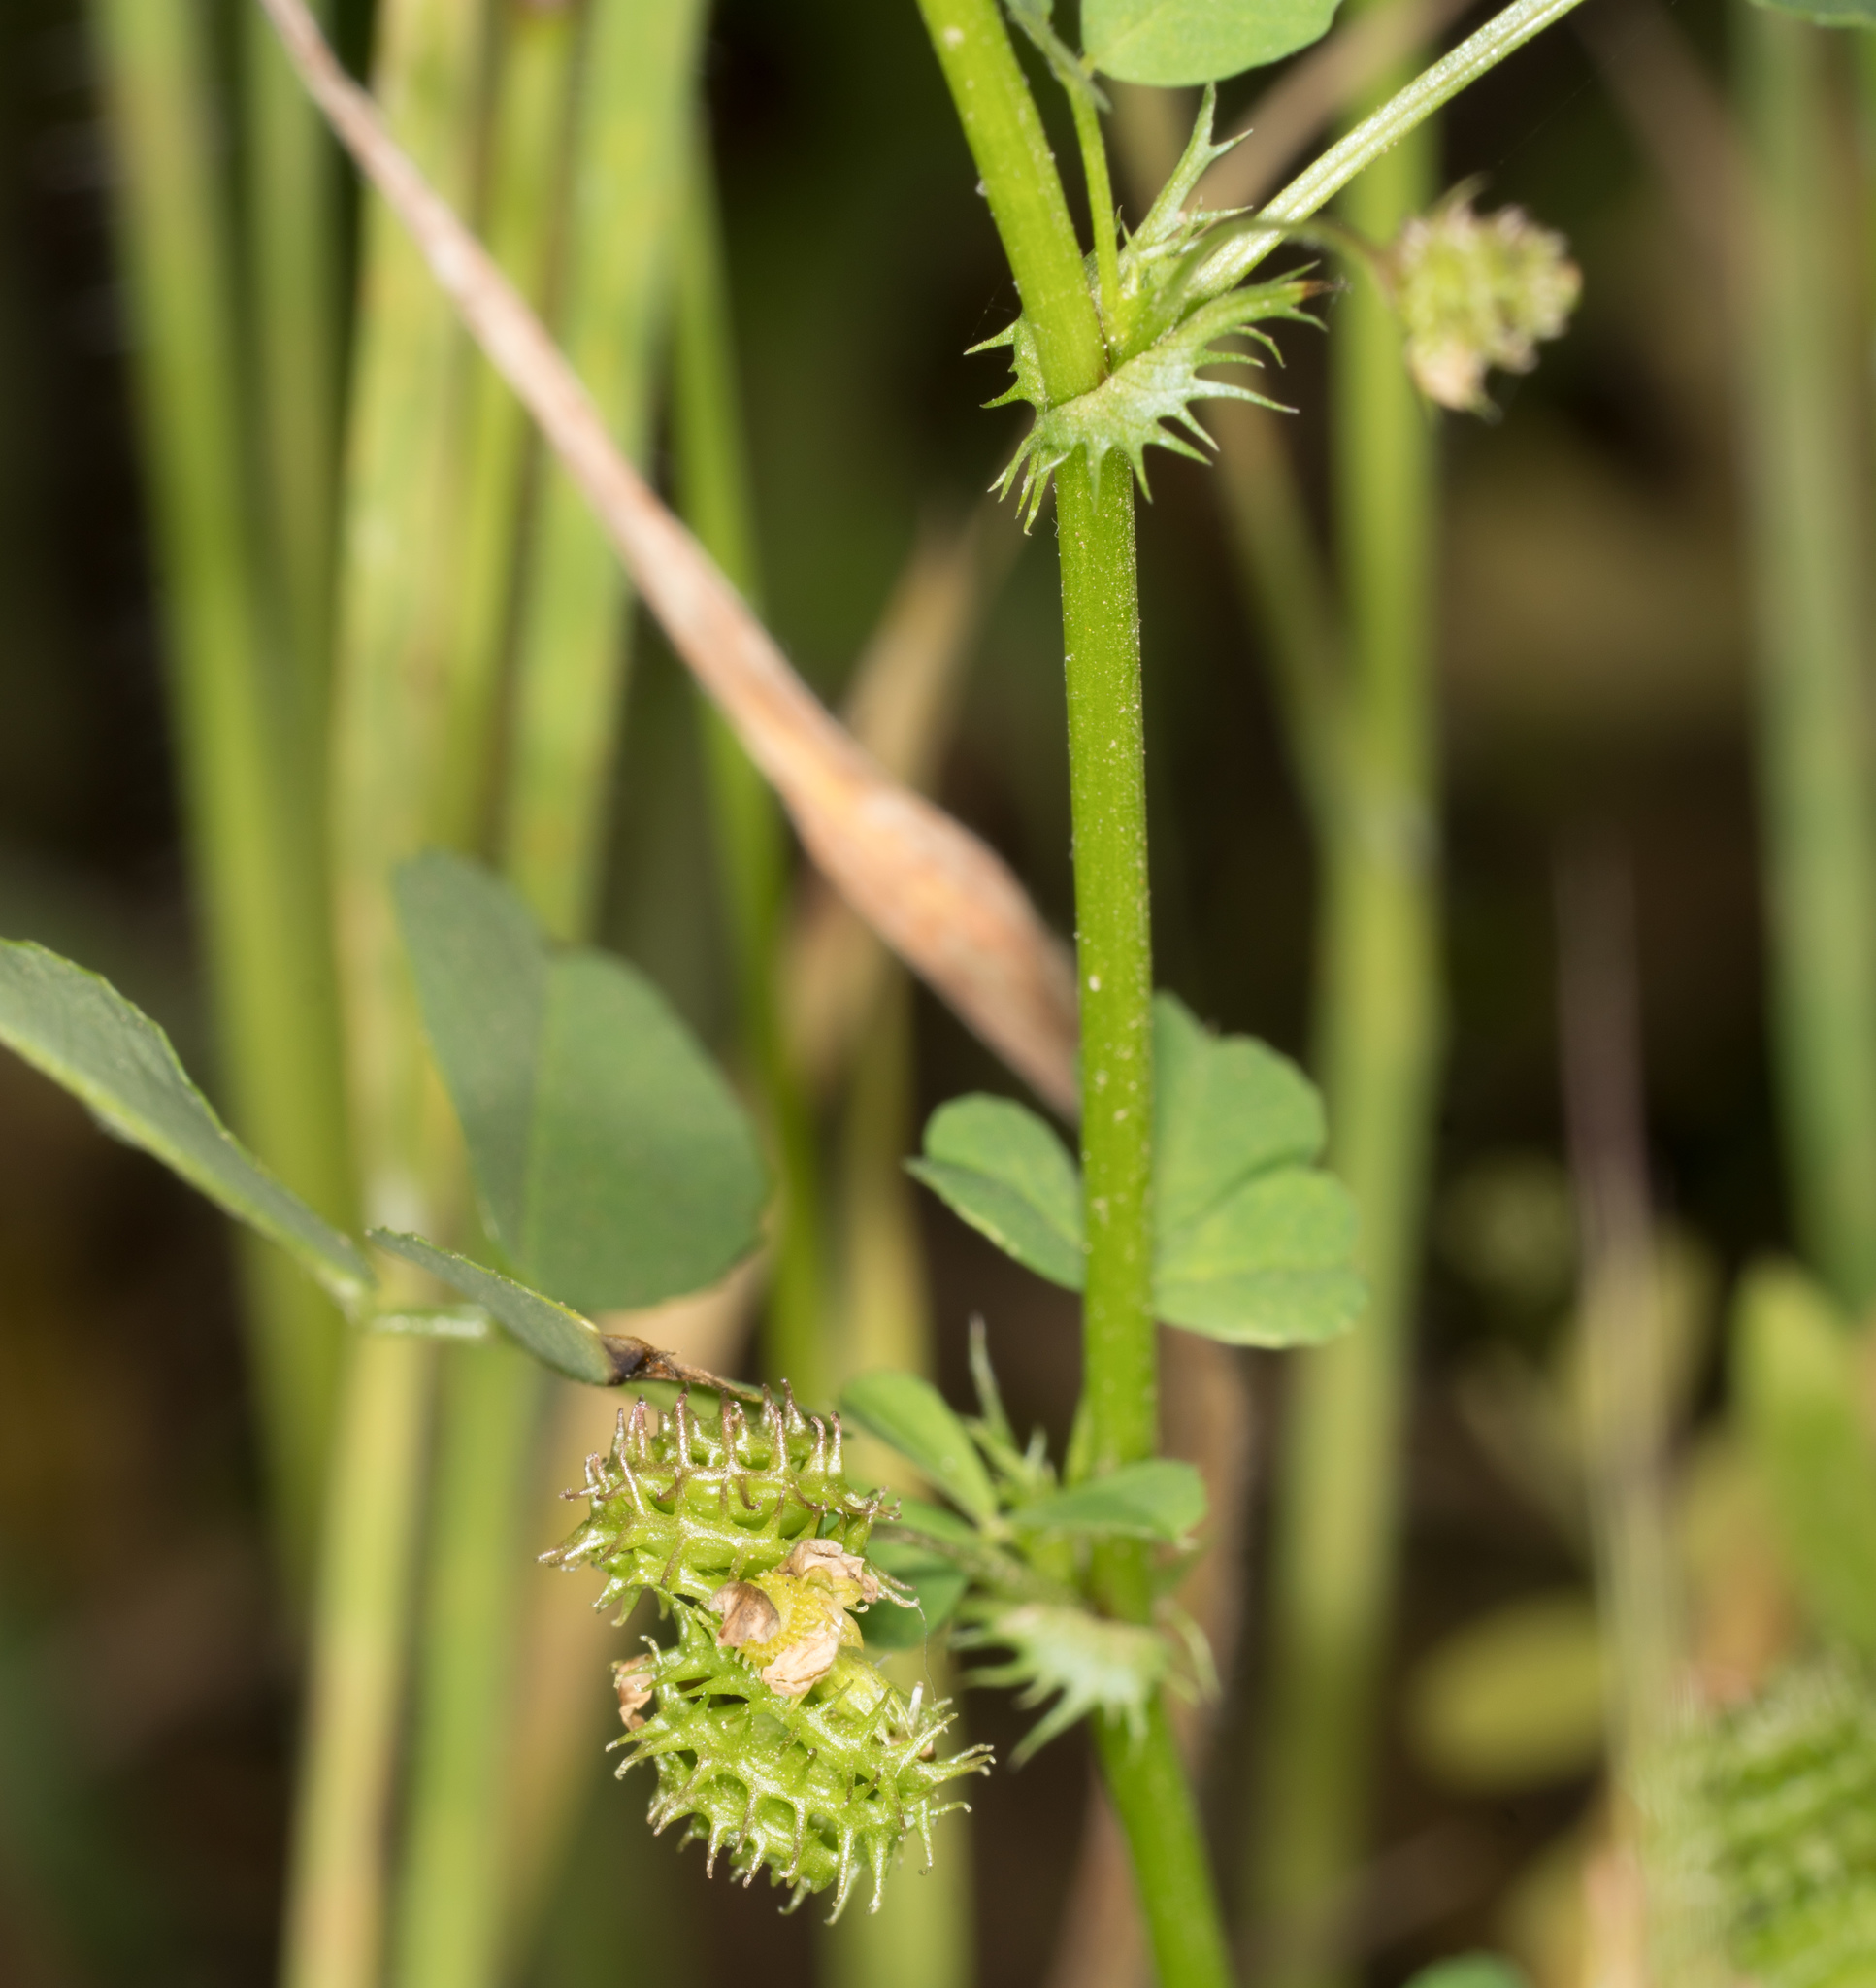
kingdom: Plantae
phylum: Tracheophyta
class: Magnoliopsida
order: Fabales
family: Fabaceae
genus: Medicago
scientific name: Medicago polymorpha
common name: Burclover
